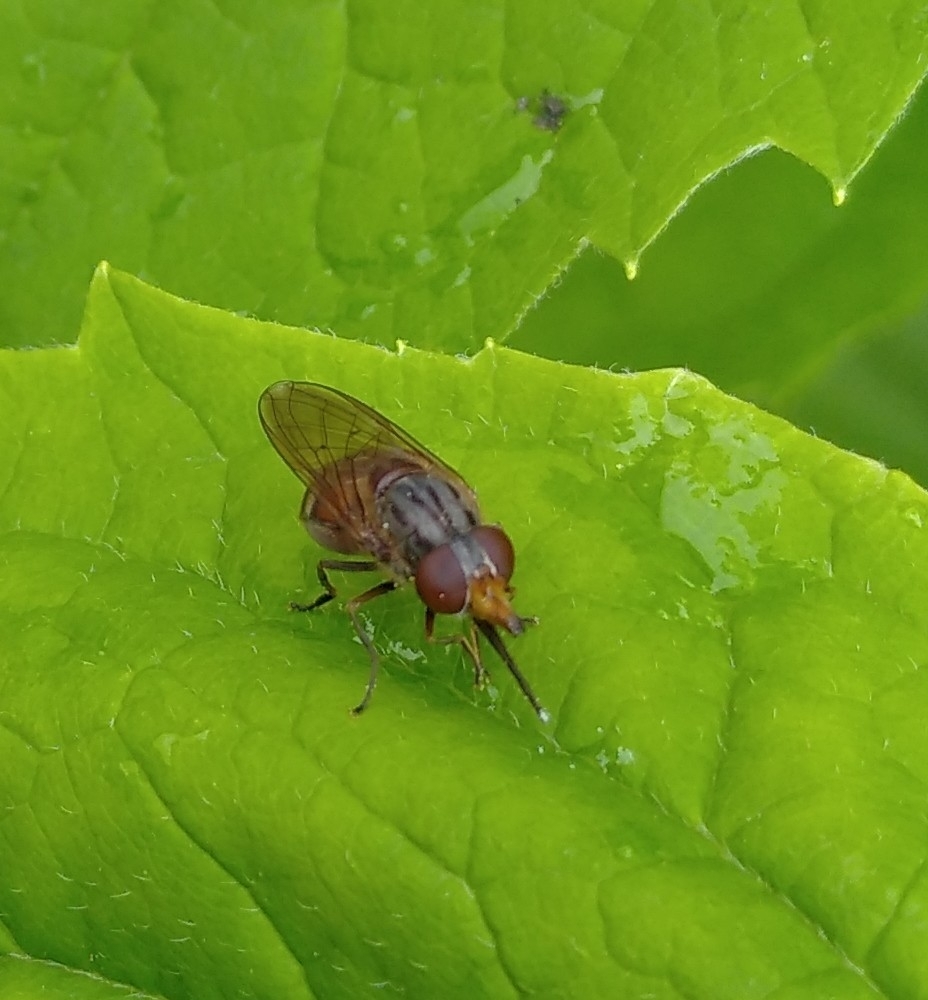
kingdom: Animalia
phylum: Arthropoda
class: Insecta
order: Diptera
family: Syrphidae
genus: Rhingia
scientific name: Rhingia campestris
